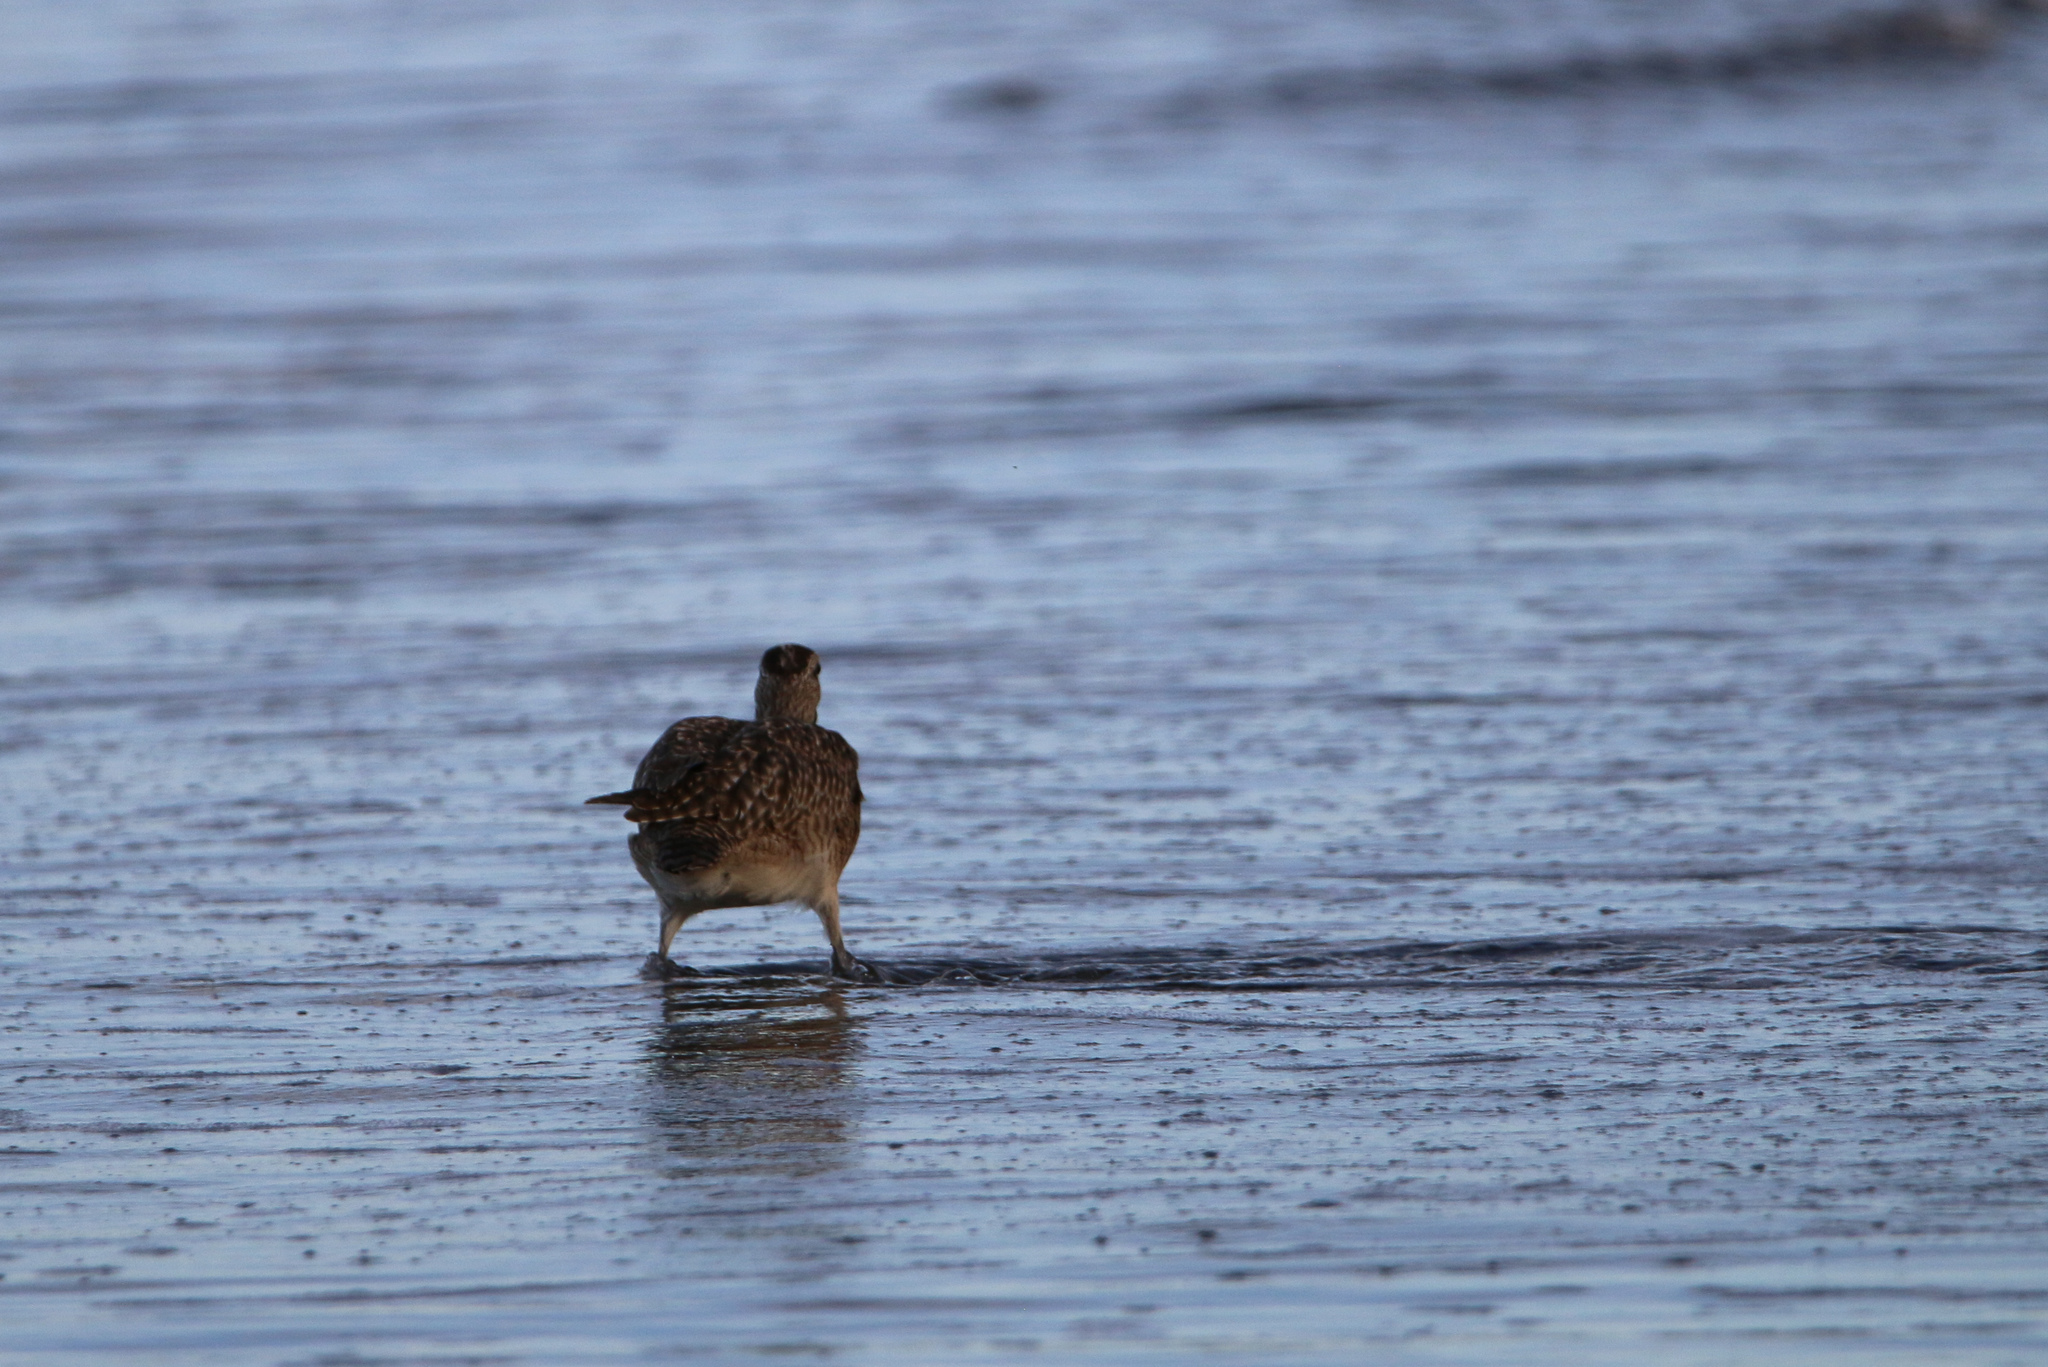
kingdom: Animalia
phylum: Chordata
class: Aves
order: Charadriiformes
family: Scolopacidae
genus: Numenius
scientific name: Numenius phaeopus
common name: Whimbrel
